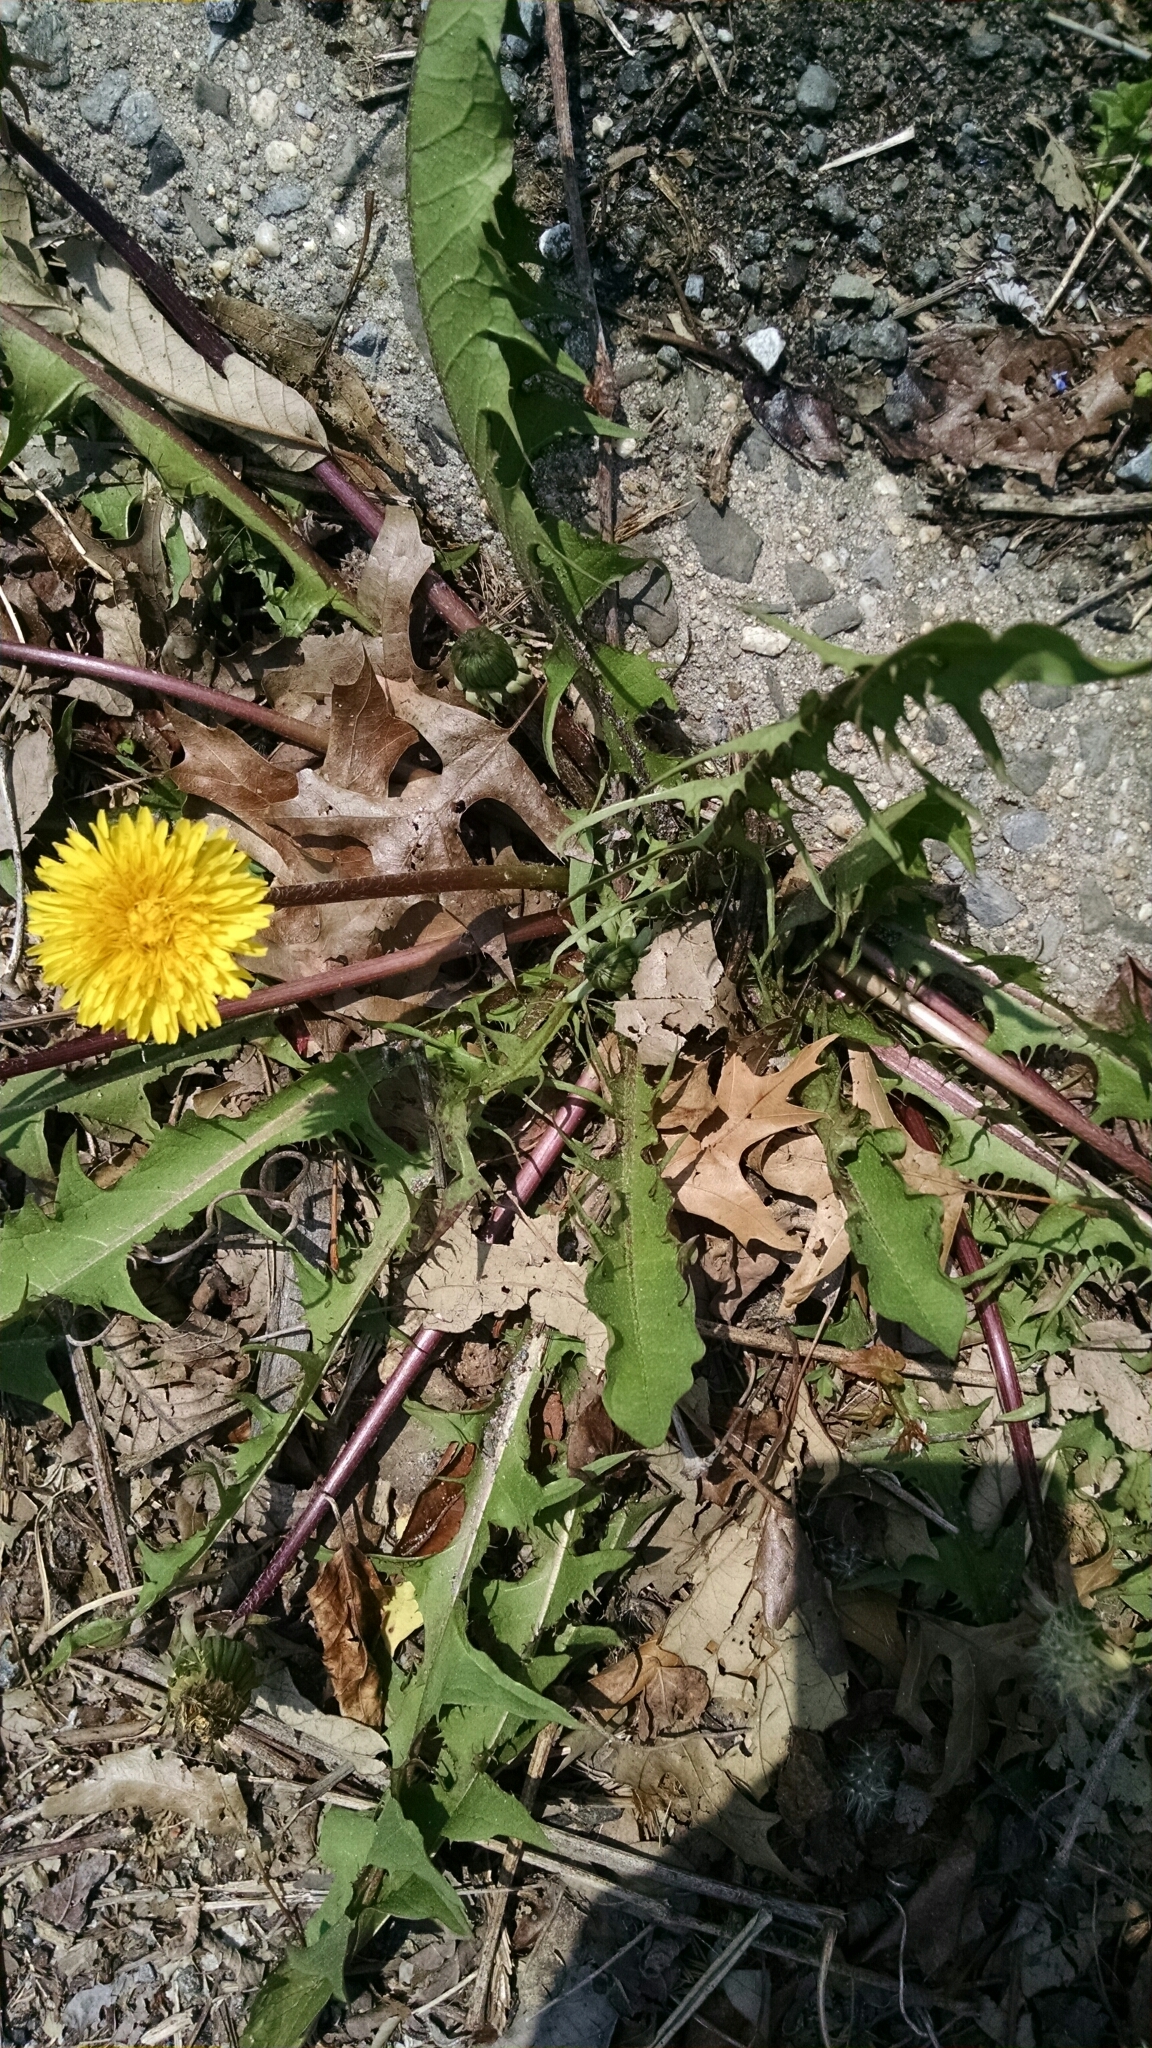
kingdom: Plantae
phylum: Tracheophyta
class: Magnoliopsida
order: Asterales
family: Asteraceae
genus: Taraxacum
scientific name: Taraxacum officinale
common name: Common dandelion
